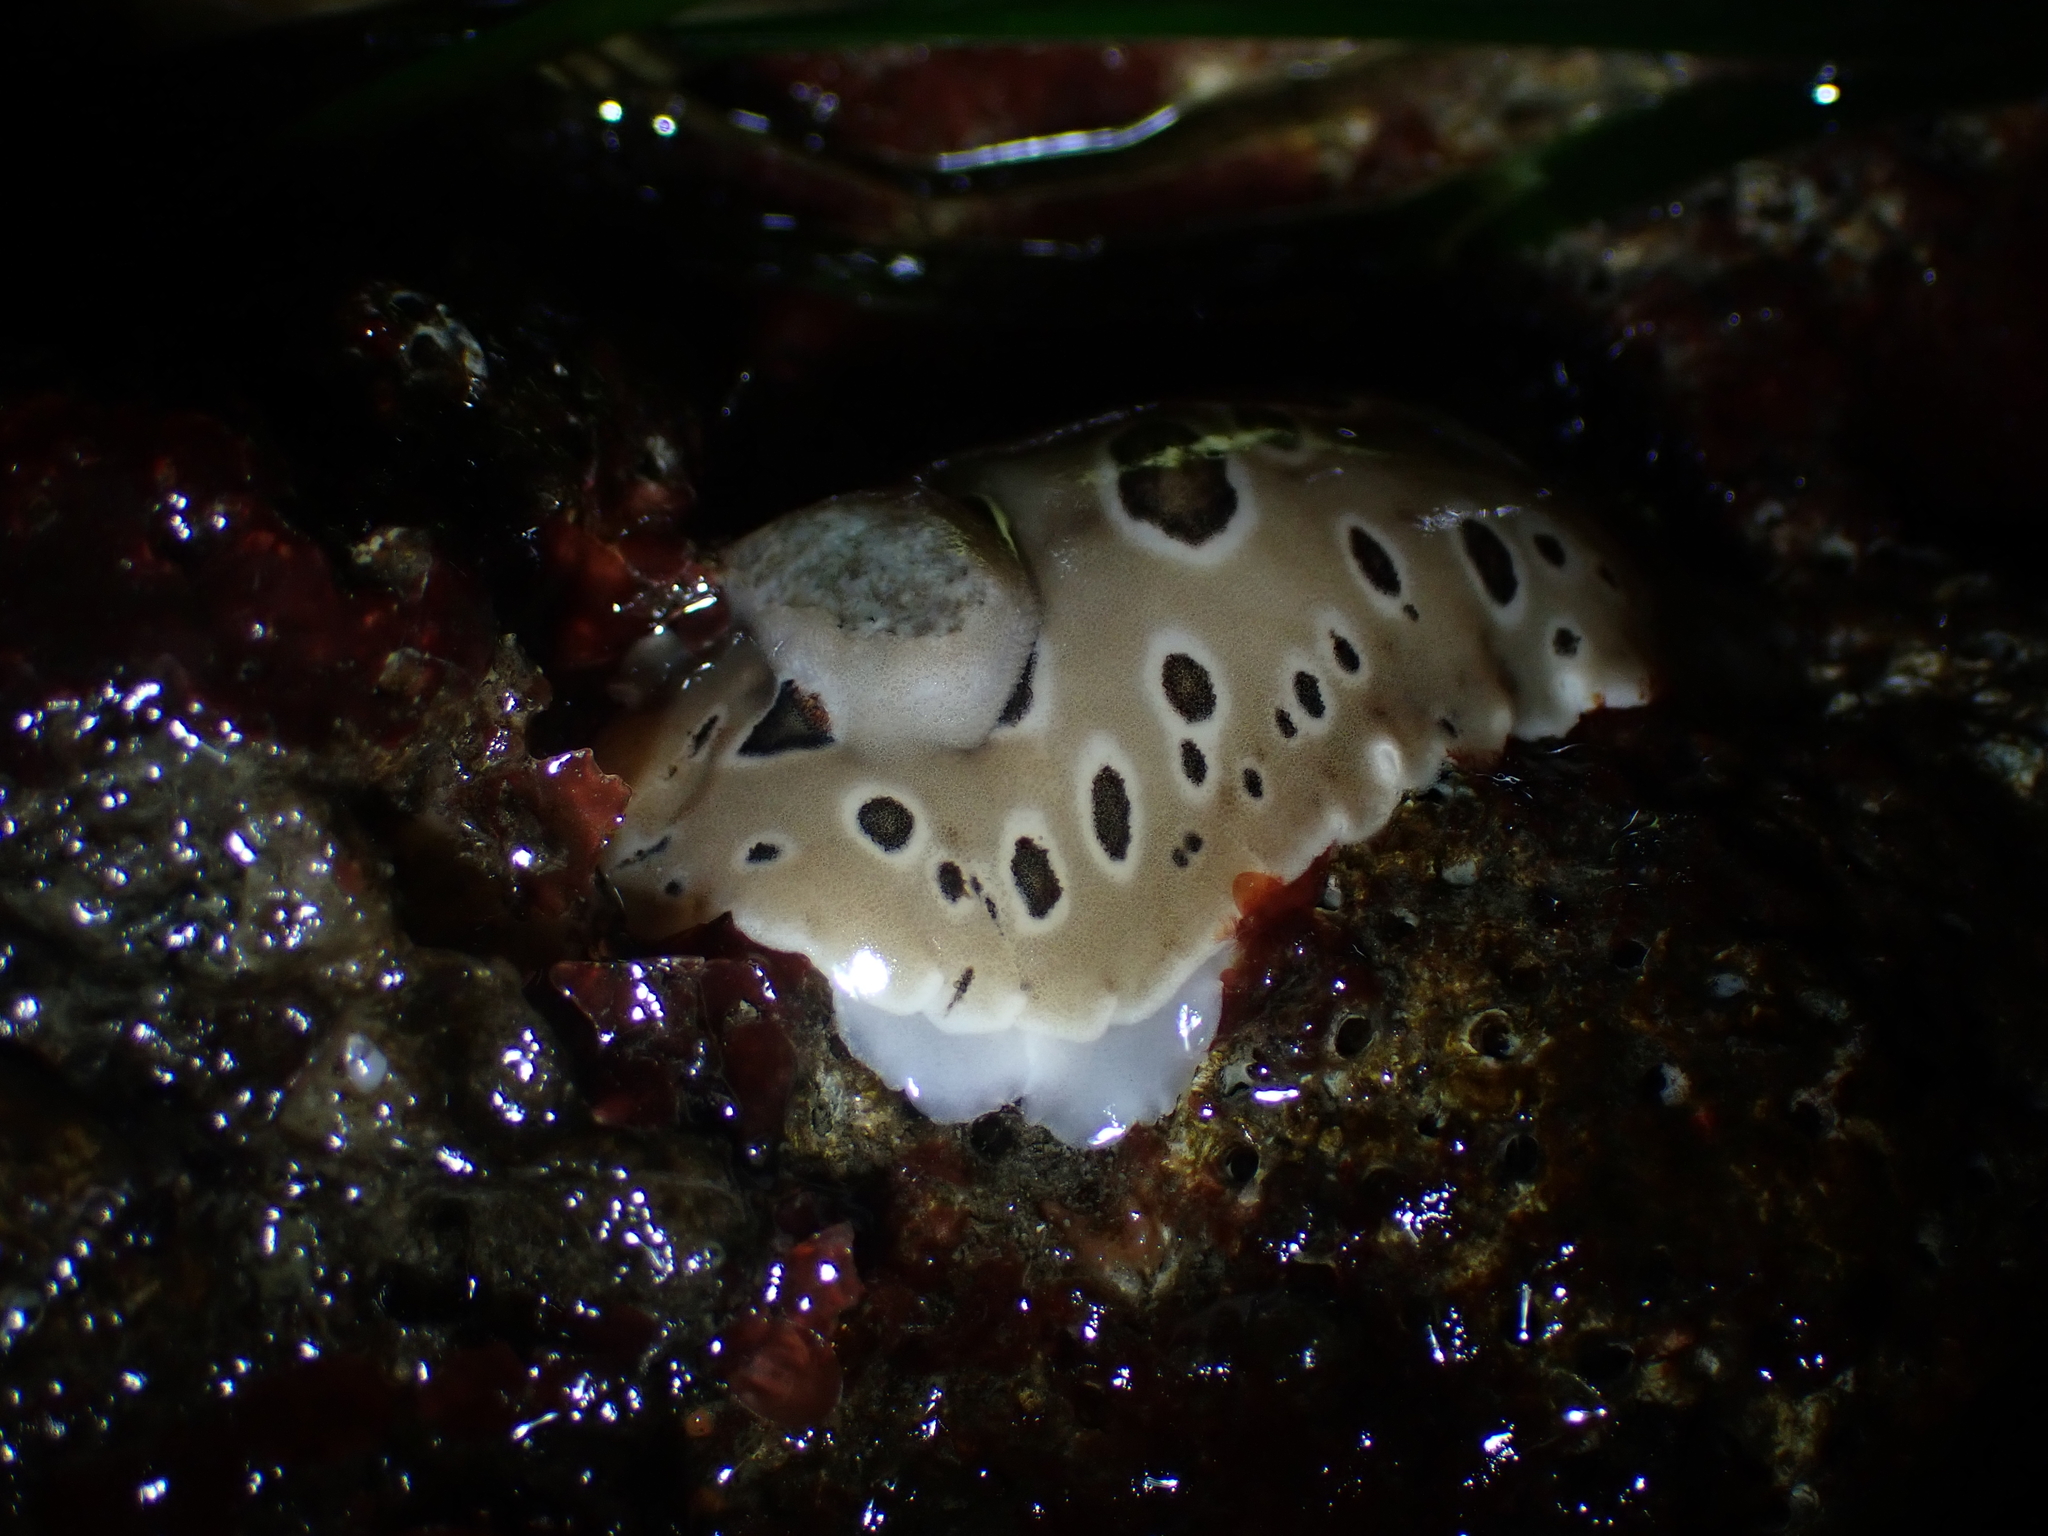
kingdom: Animalia
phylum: Mollusca
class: Gastropoda
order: Nudibranchia
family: Discodorididae
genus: Diaulula
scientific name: Diaulula odonoghuei
